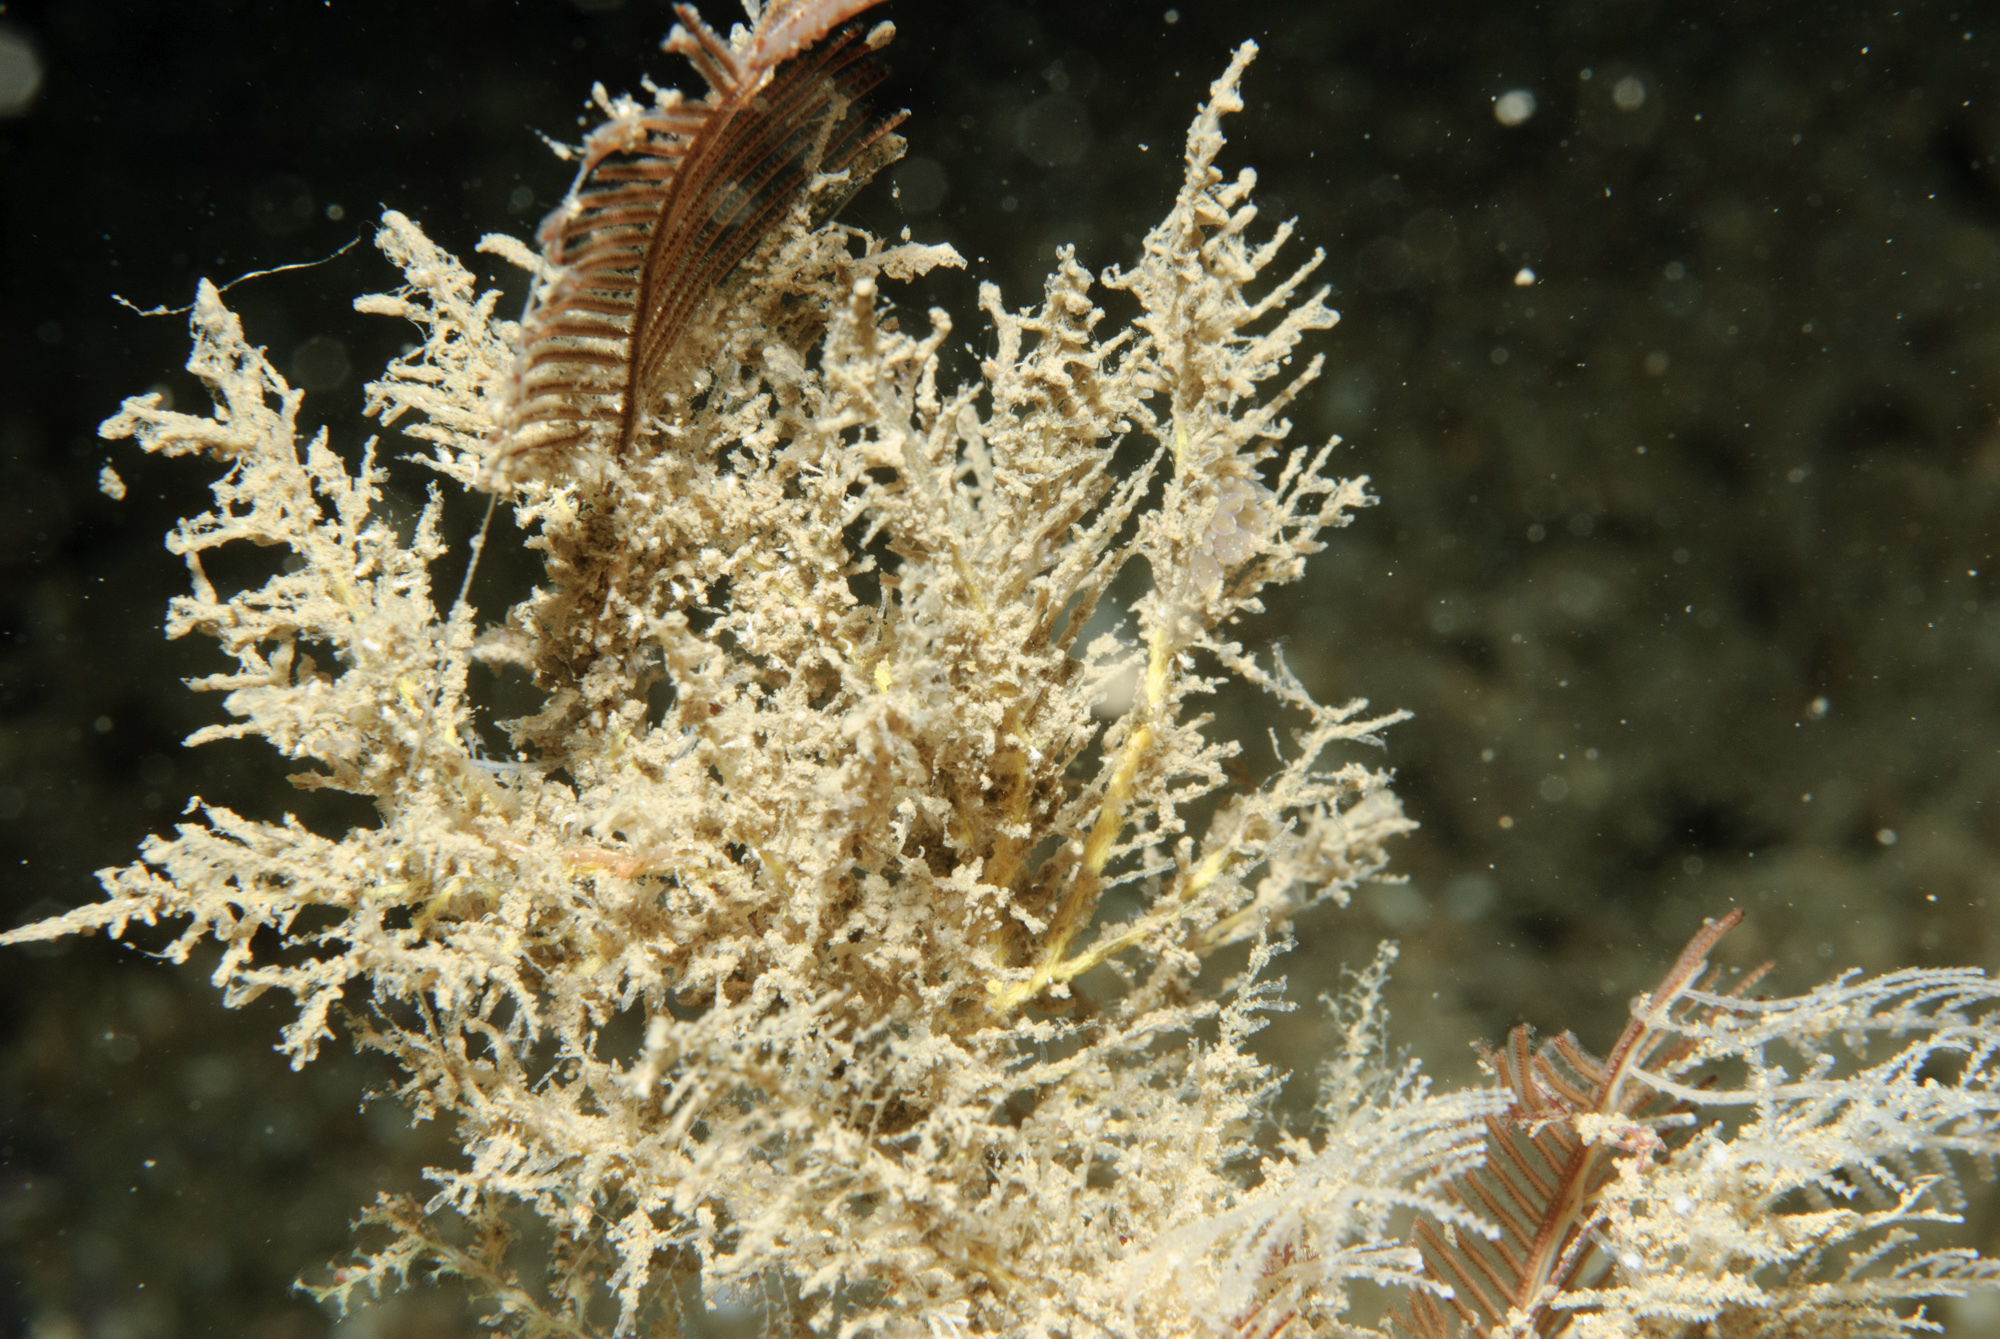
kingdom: Animalia
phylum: Cnidaria
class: Hydrozoa
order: Leptothecata
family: Sertulariidae
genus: Diphasia
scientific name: Diphasia alata
